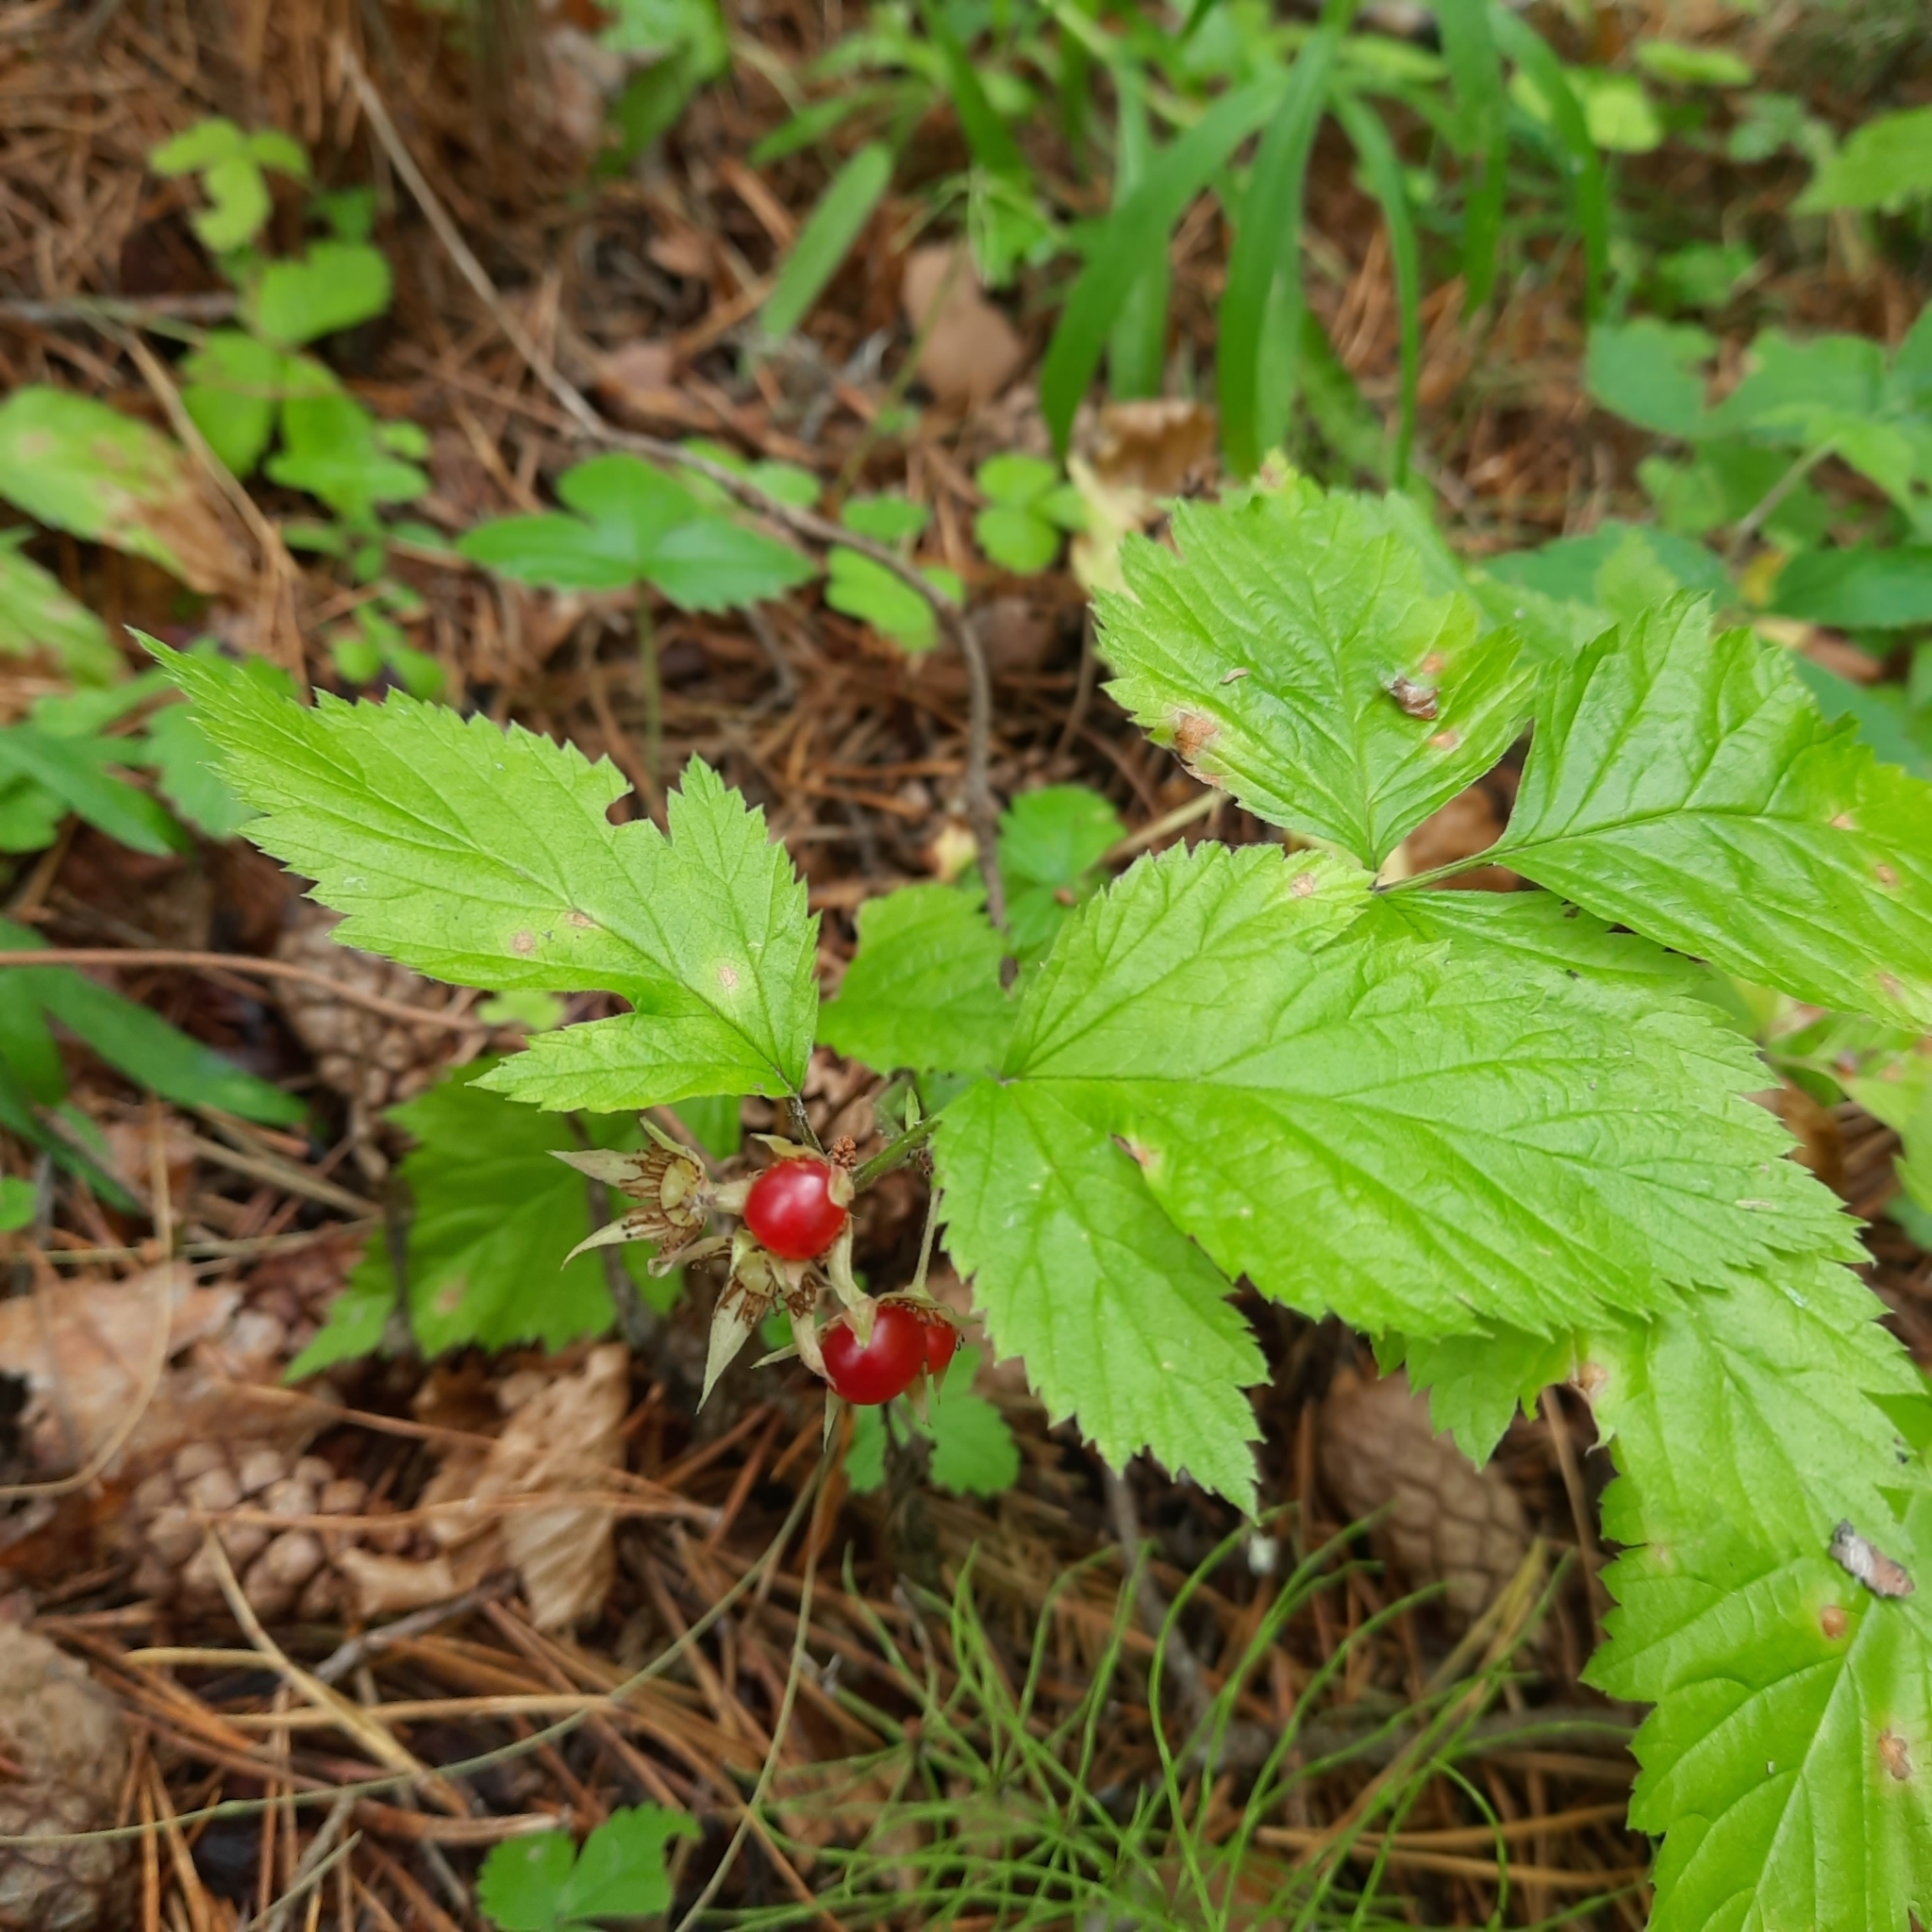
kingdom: Plantae
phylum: Tracheophyta
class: Magnoliopsida
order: Rosales
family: Rosaceae
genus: Rubus
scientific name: Rubus saxatilis
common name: Stone bramble
